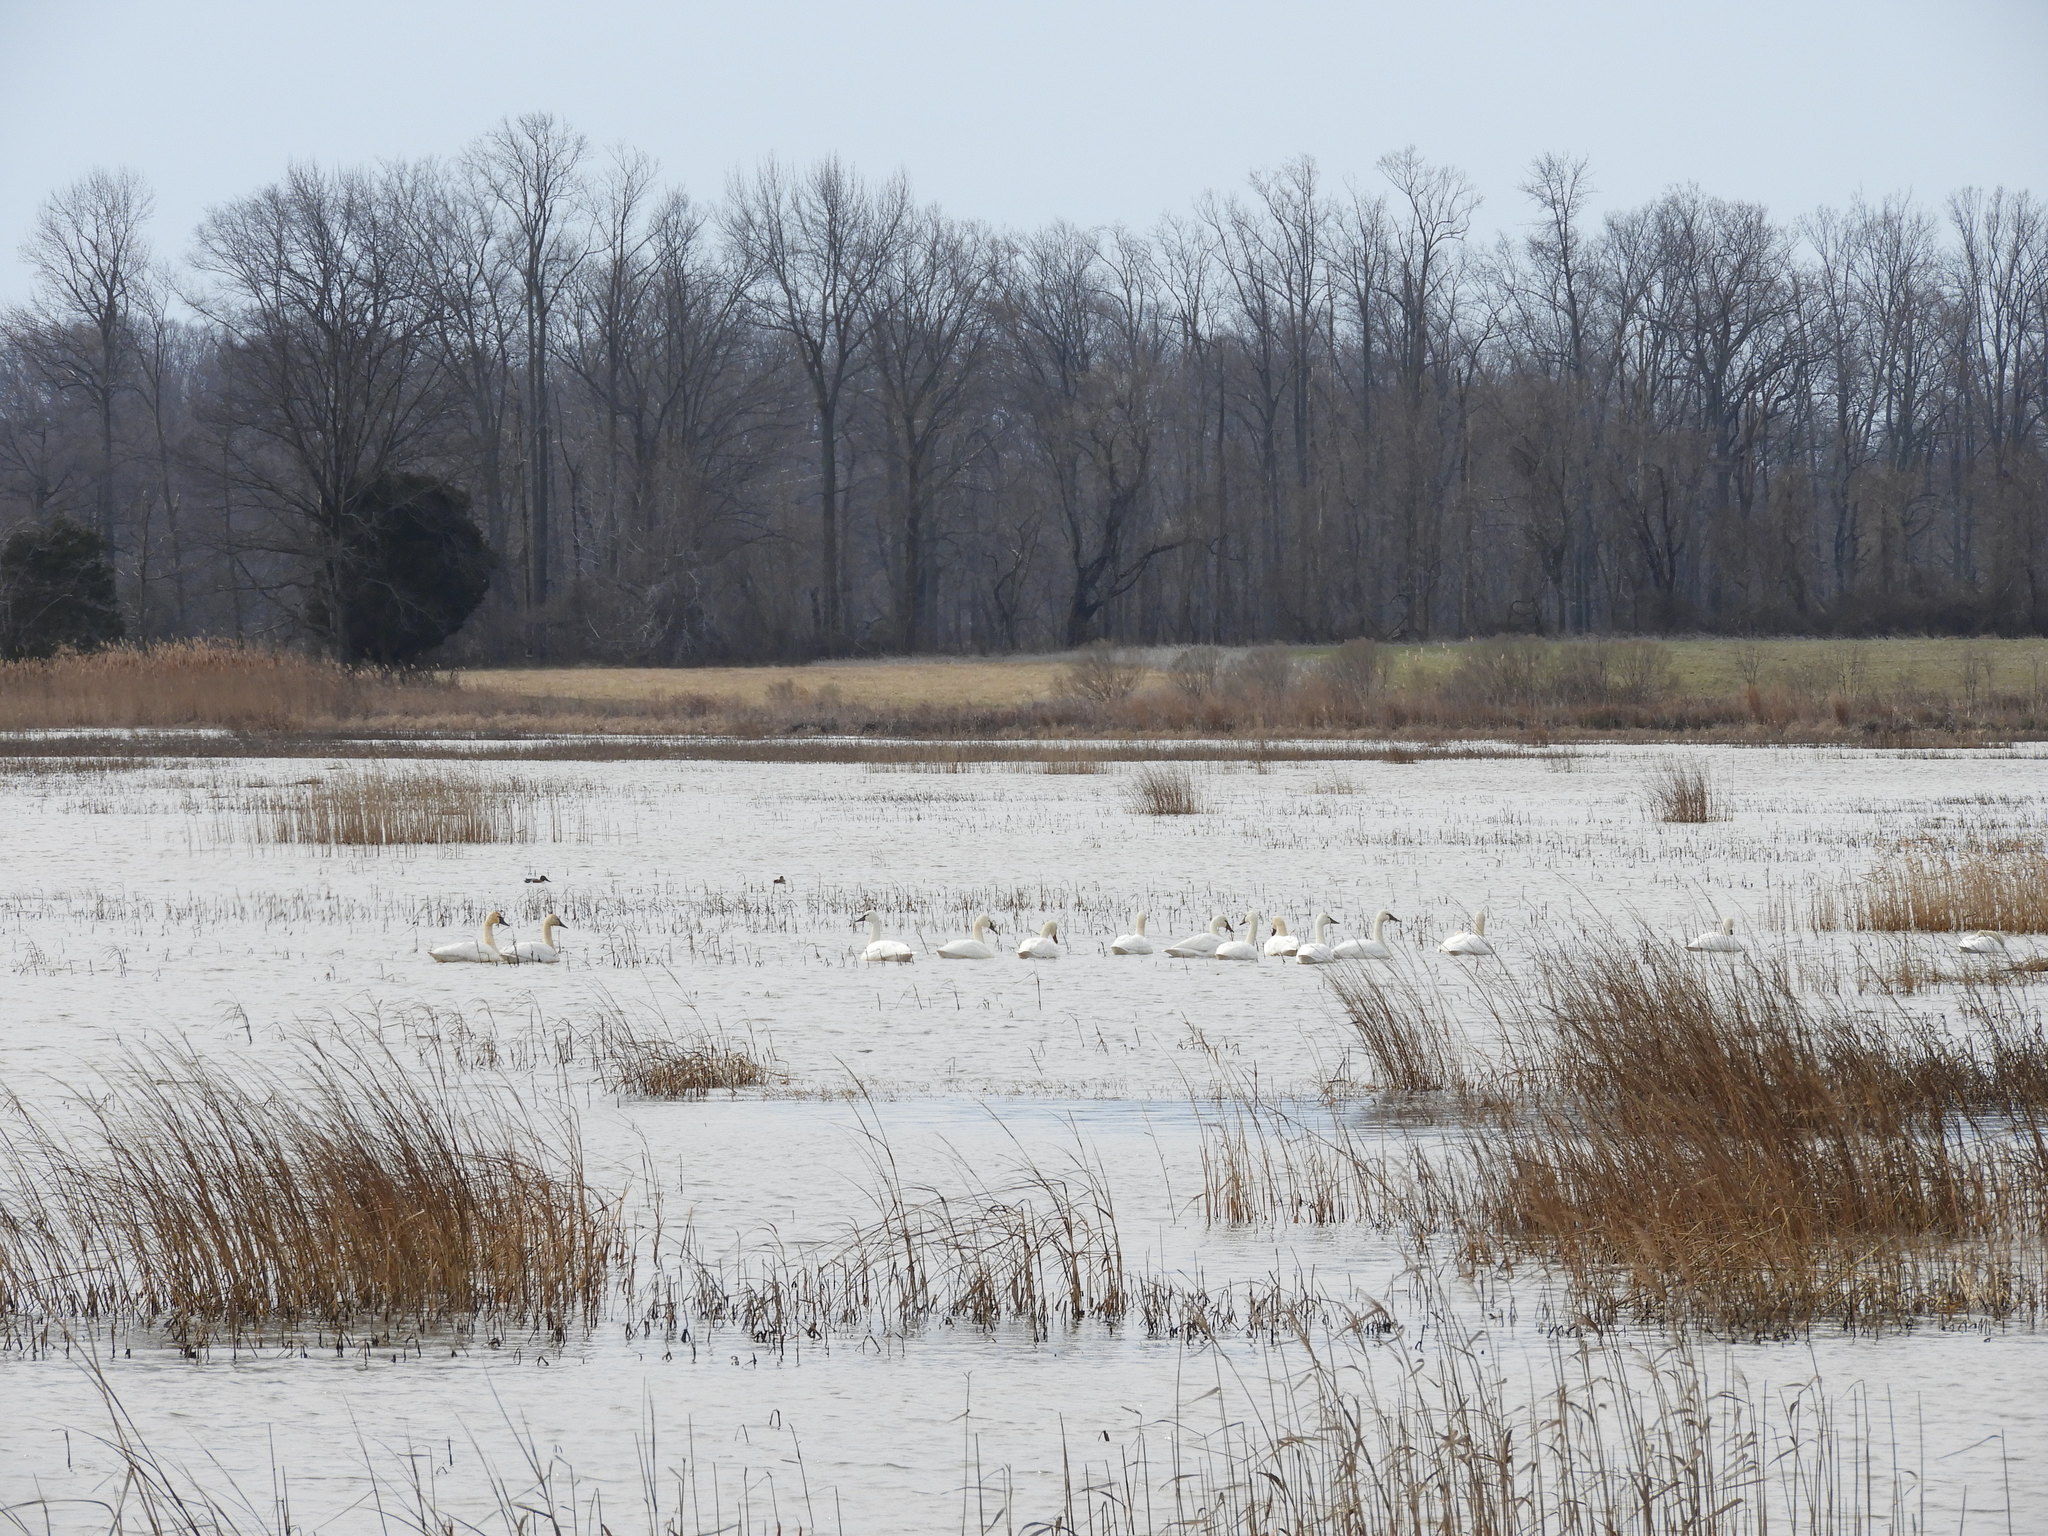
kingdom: Animalia
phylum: Chordata
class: Aves
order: Anseriformes
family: Anatidae
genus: Cygnus
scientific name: Cygnus columbianus
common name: Tundra swan
